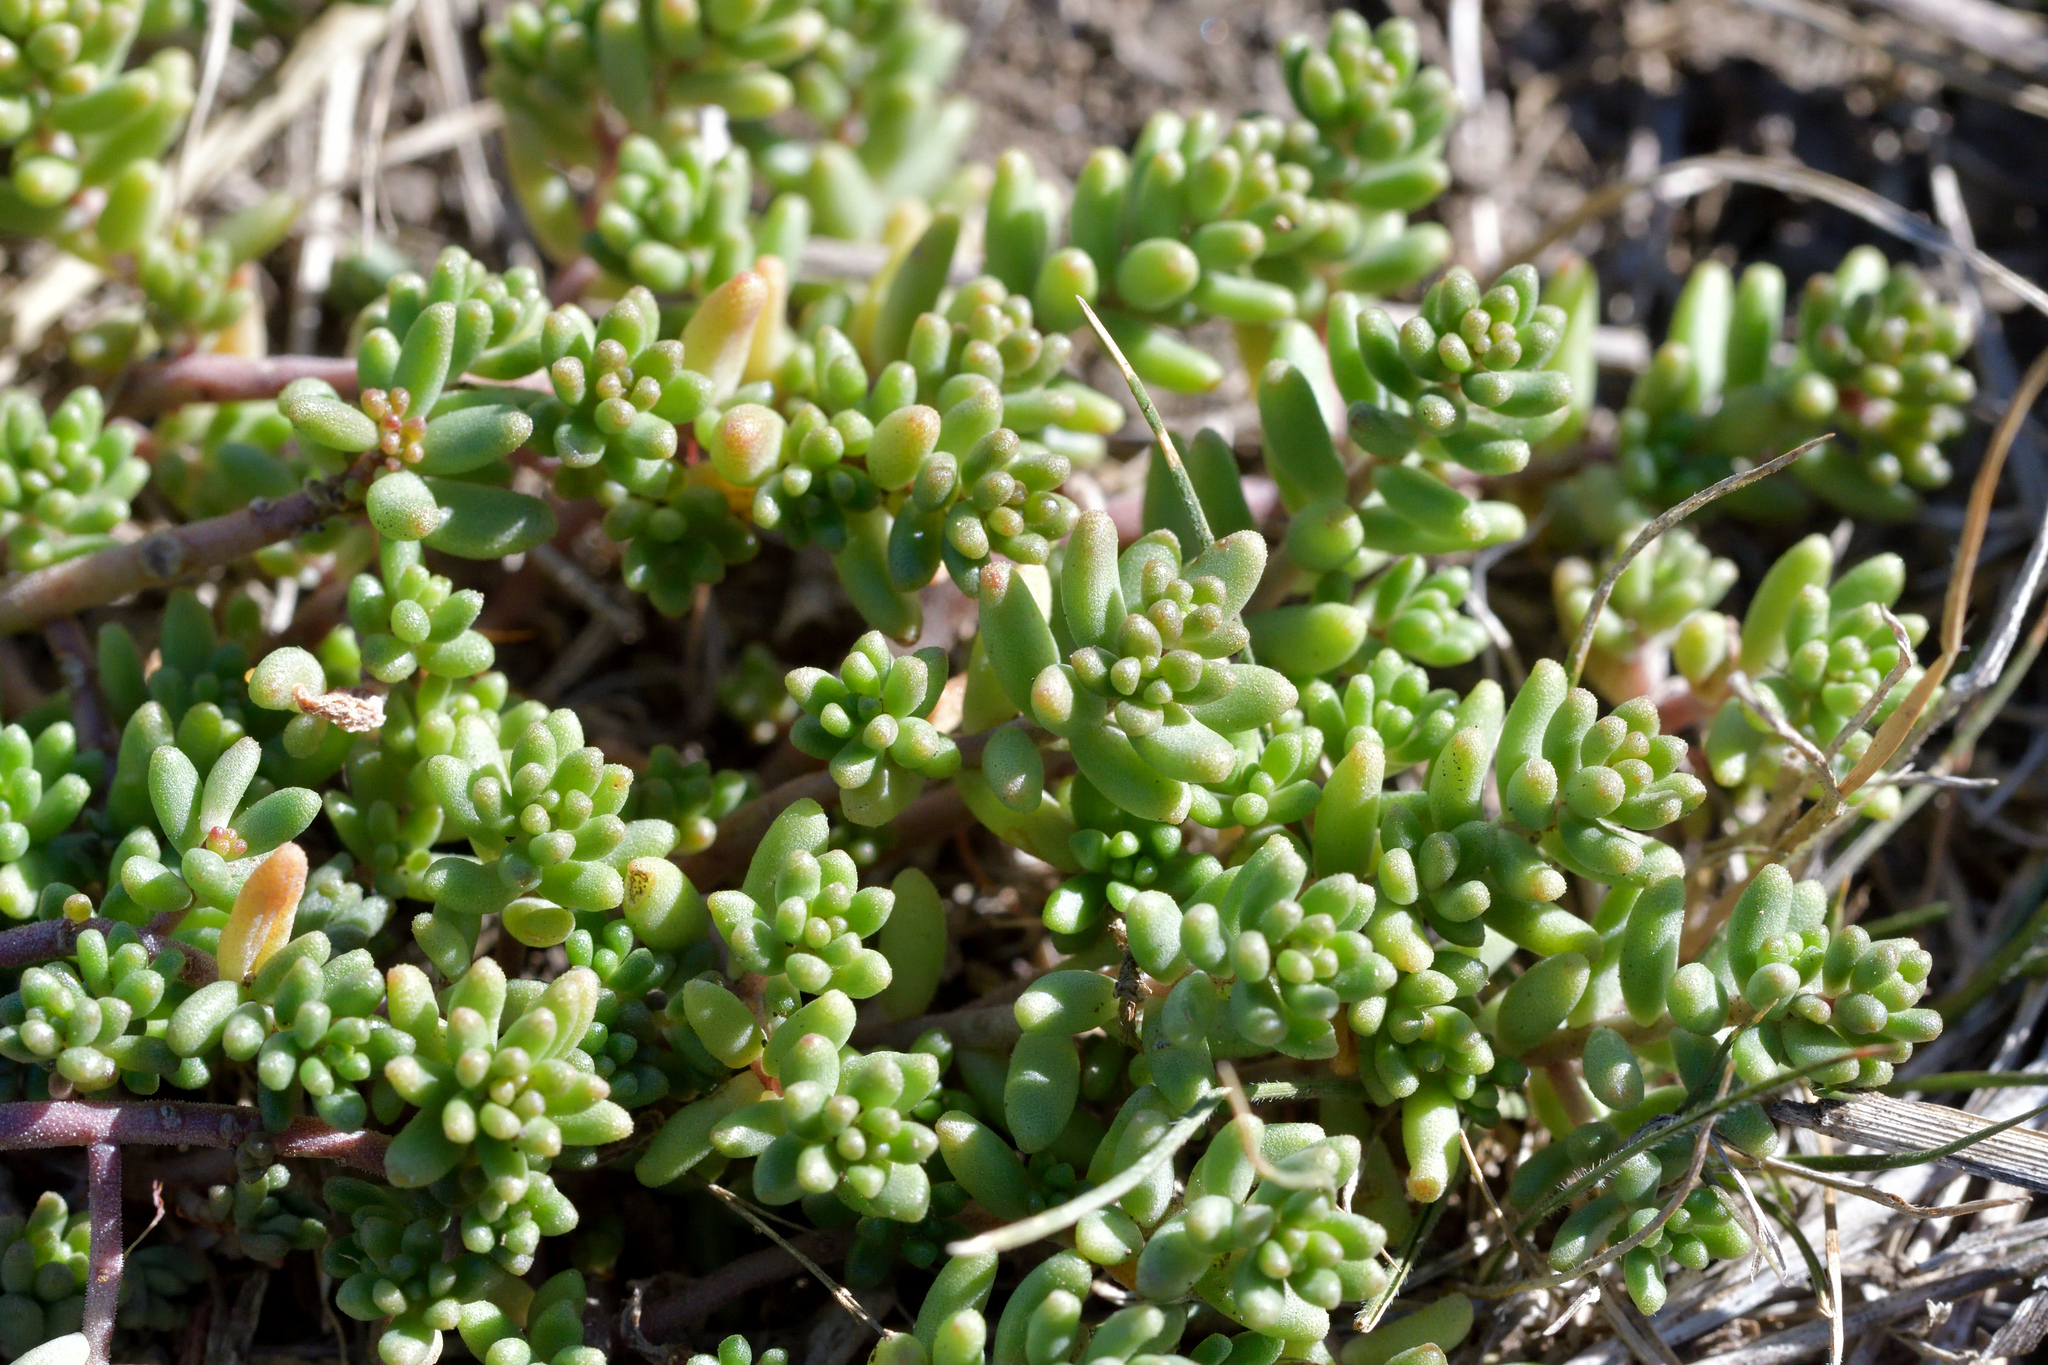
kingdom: Plantae
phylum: Tracheophyta
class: Magnoliopsida
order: Saxifragales
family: Crassulaceae
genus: Sedum
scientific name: Sedum album
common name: White stonecrop
